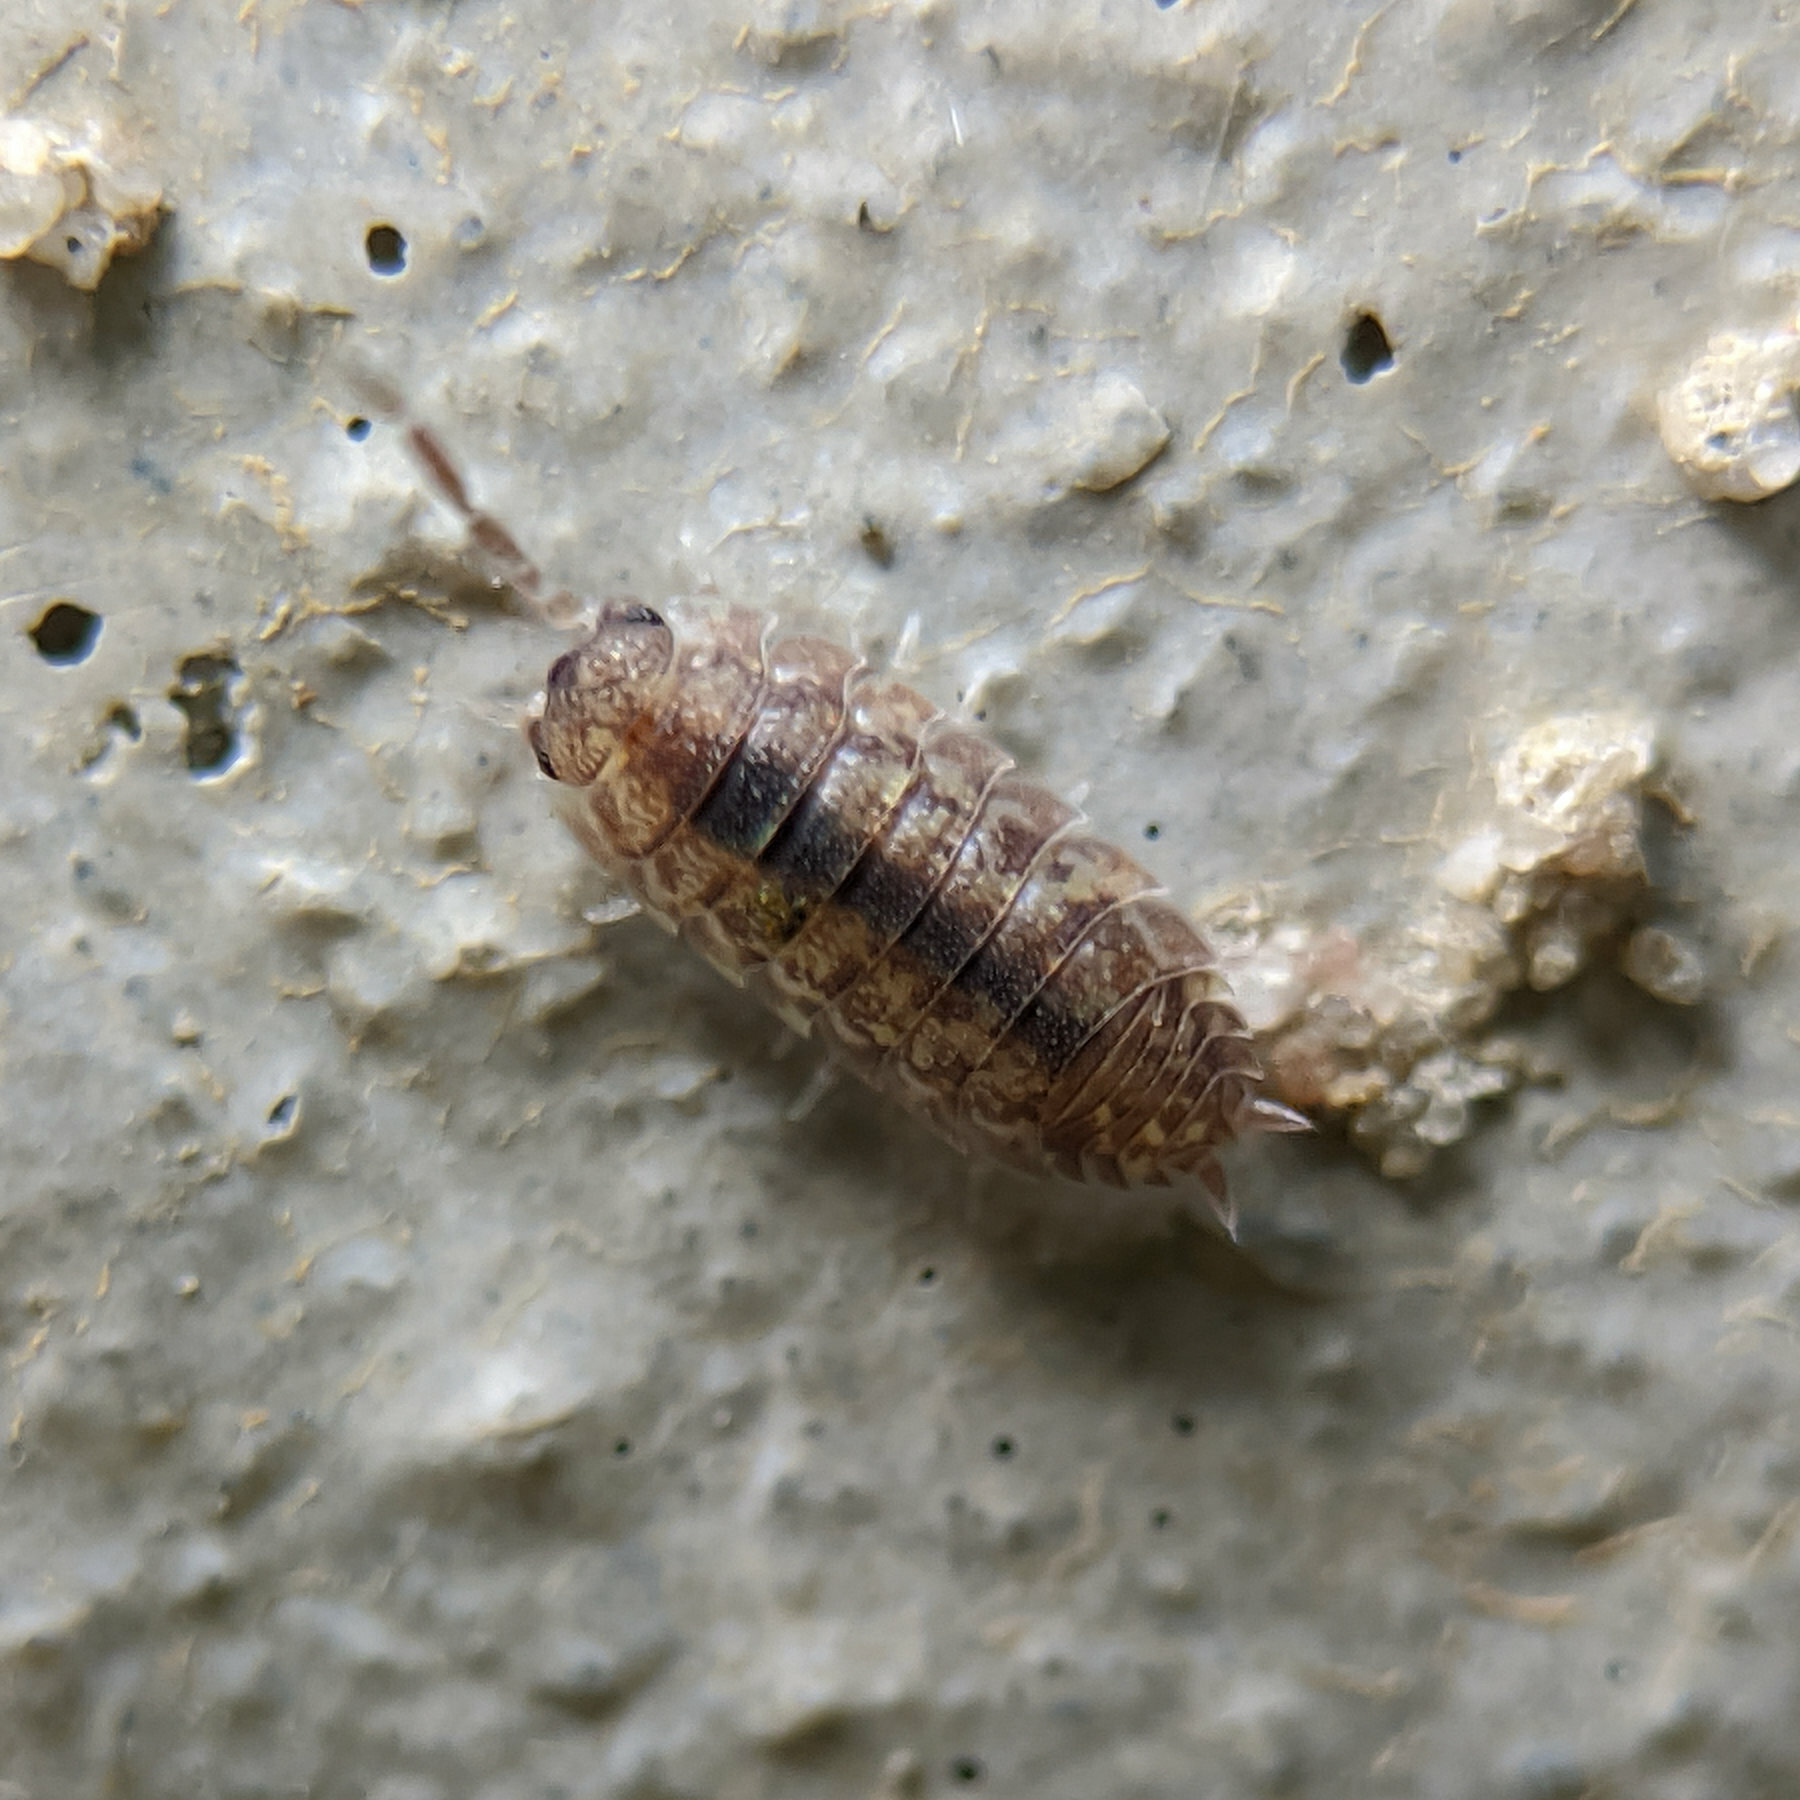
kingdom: Animalia
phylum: Arthropoda
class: Malacostraca
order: Isopoda
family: Porcellionidae
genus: Porcellio
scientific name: Porcellio scaber
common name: Common rough woodlouse
